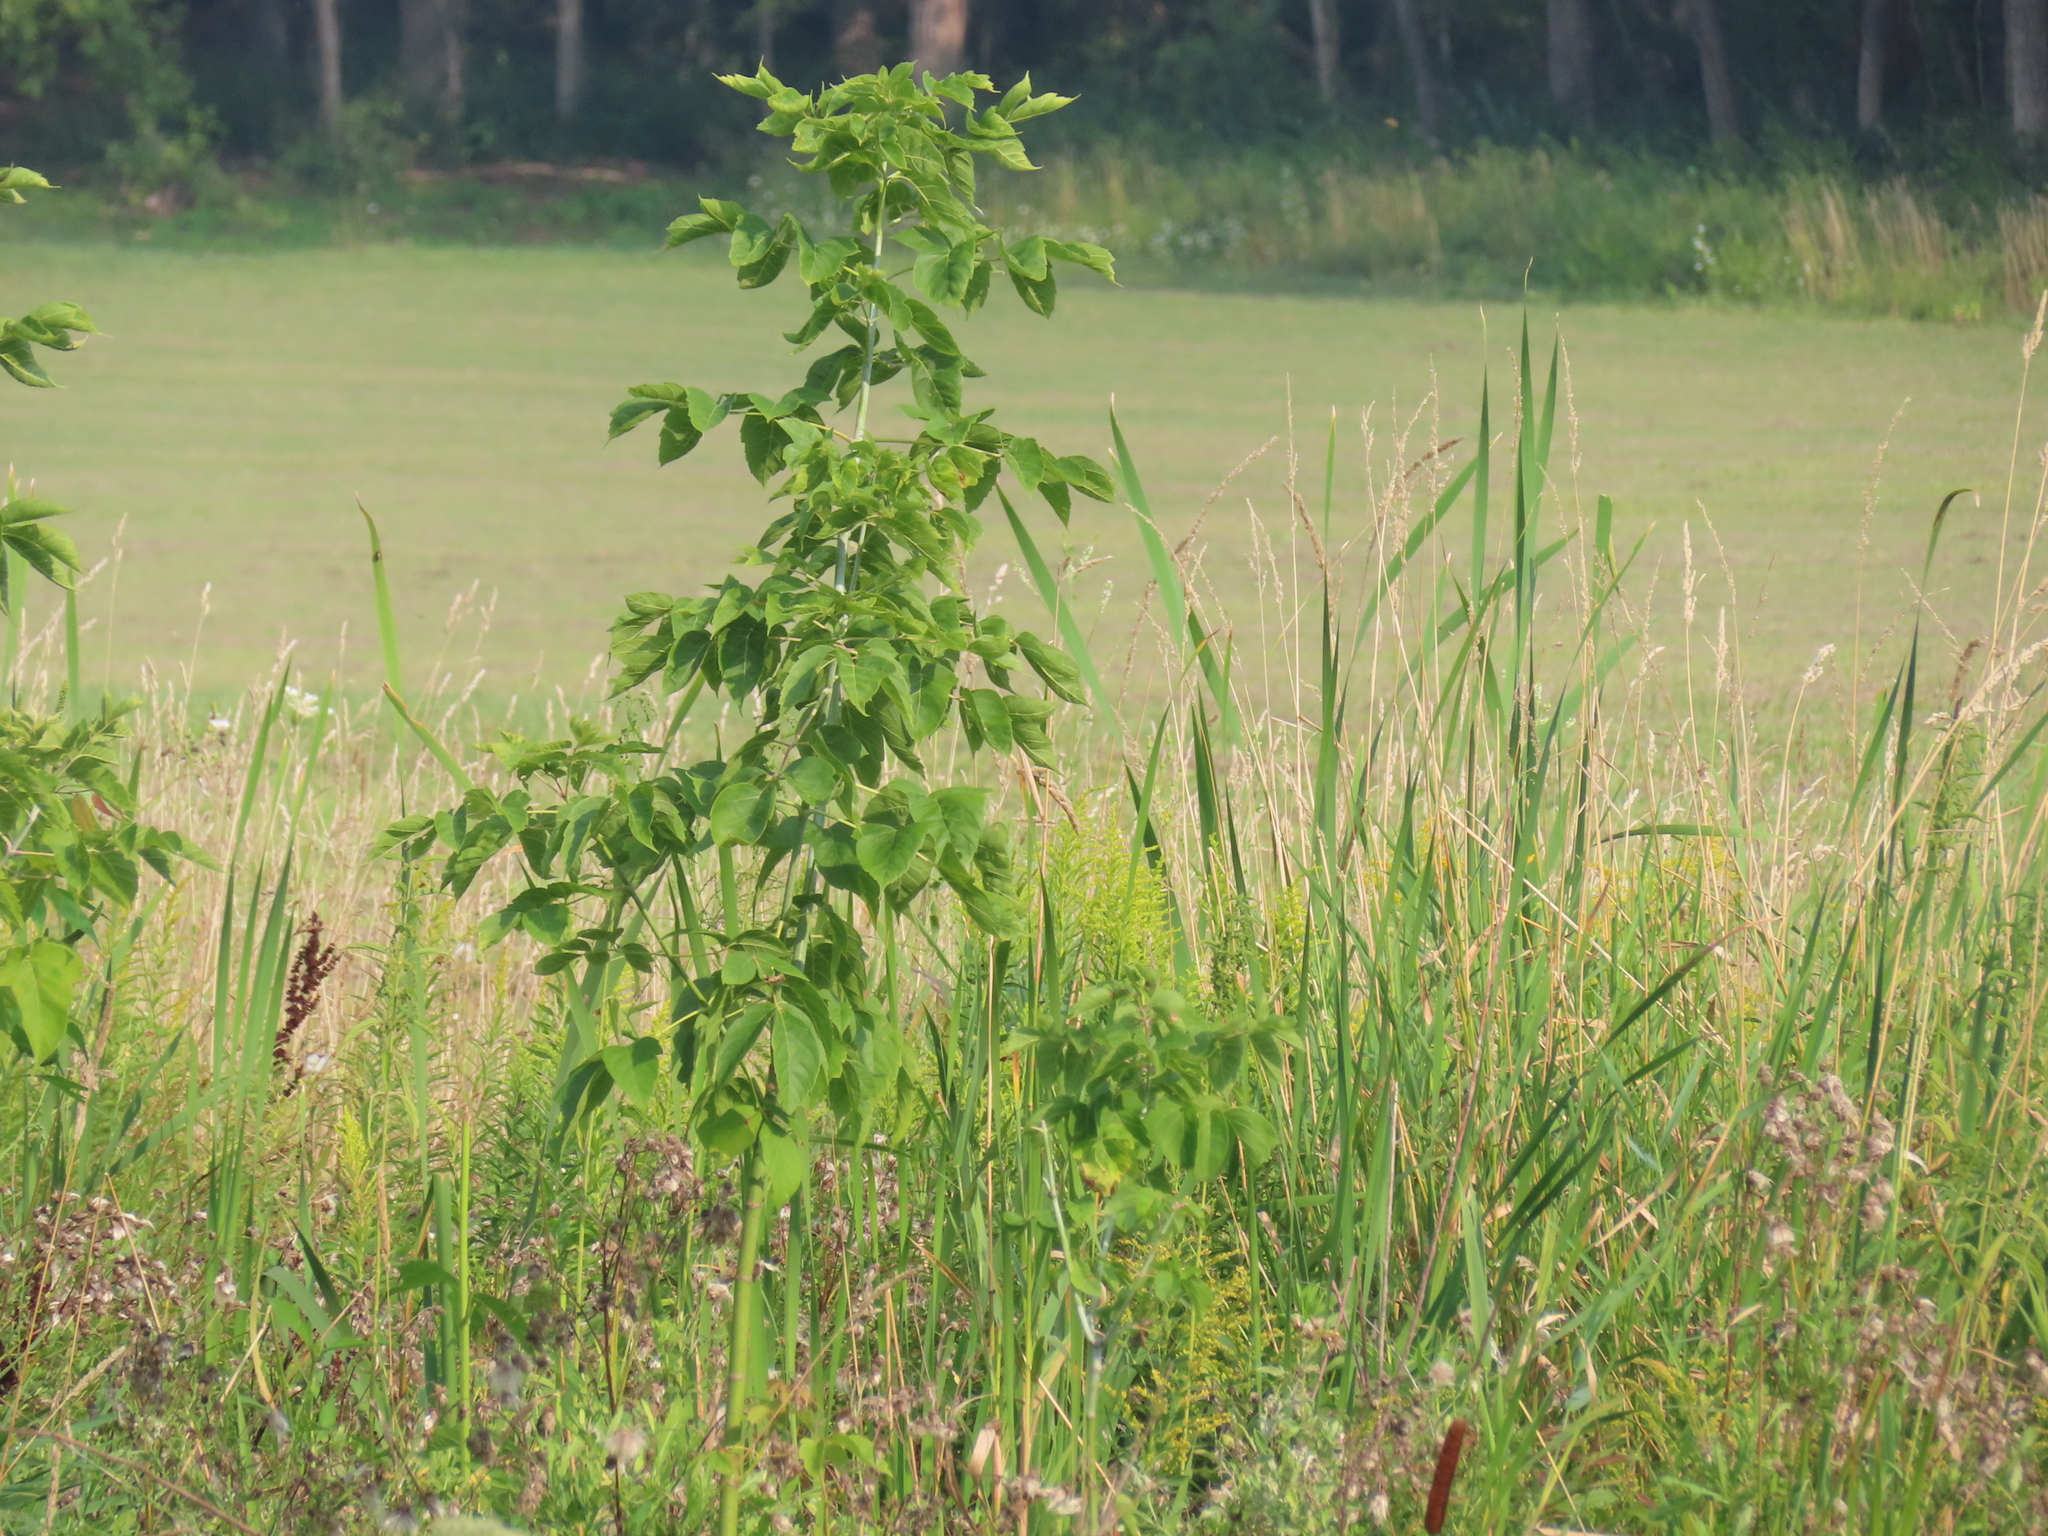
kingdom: Plantae
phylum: Tracheophyta
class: Magnoliopsida
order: Sapindales
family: Sapindaceae
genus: Acer
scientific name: Acer negundo
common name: Ashleaf maple
